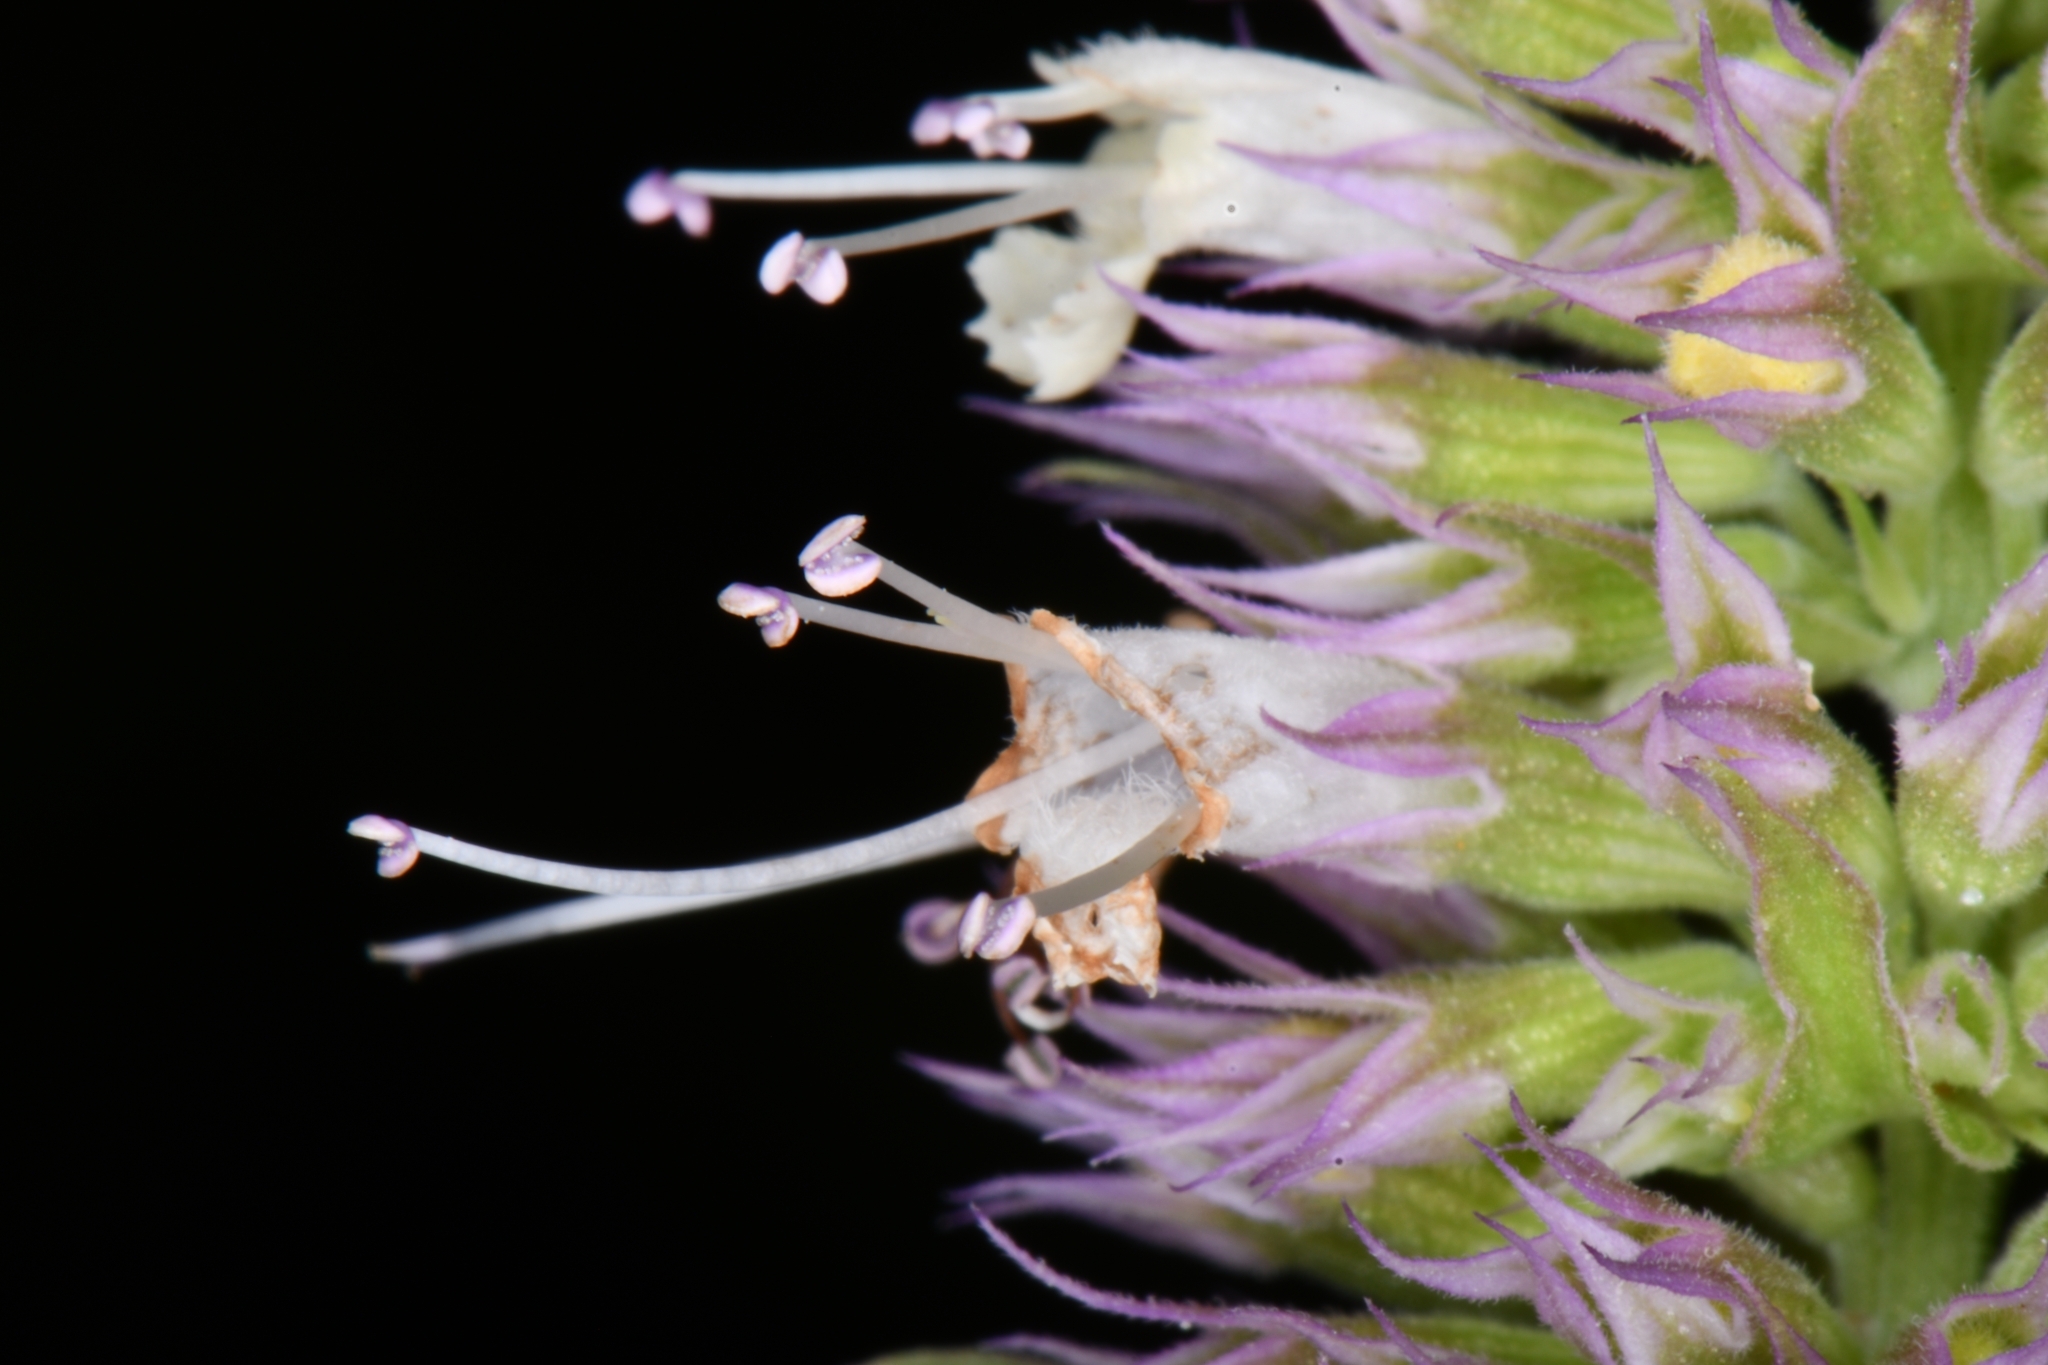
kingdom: Plantae
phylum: Tracheophyta
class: Magnoliopsida
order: Lamiales
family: Lamiaceae
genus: Agastache
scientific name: Agastache urticifolia
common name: Horsemint giant hyssop
